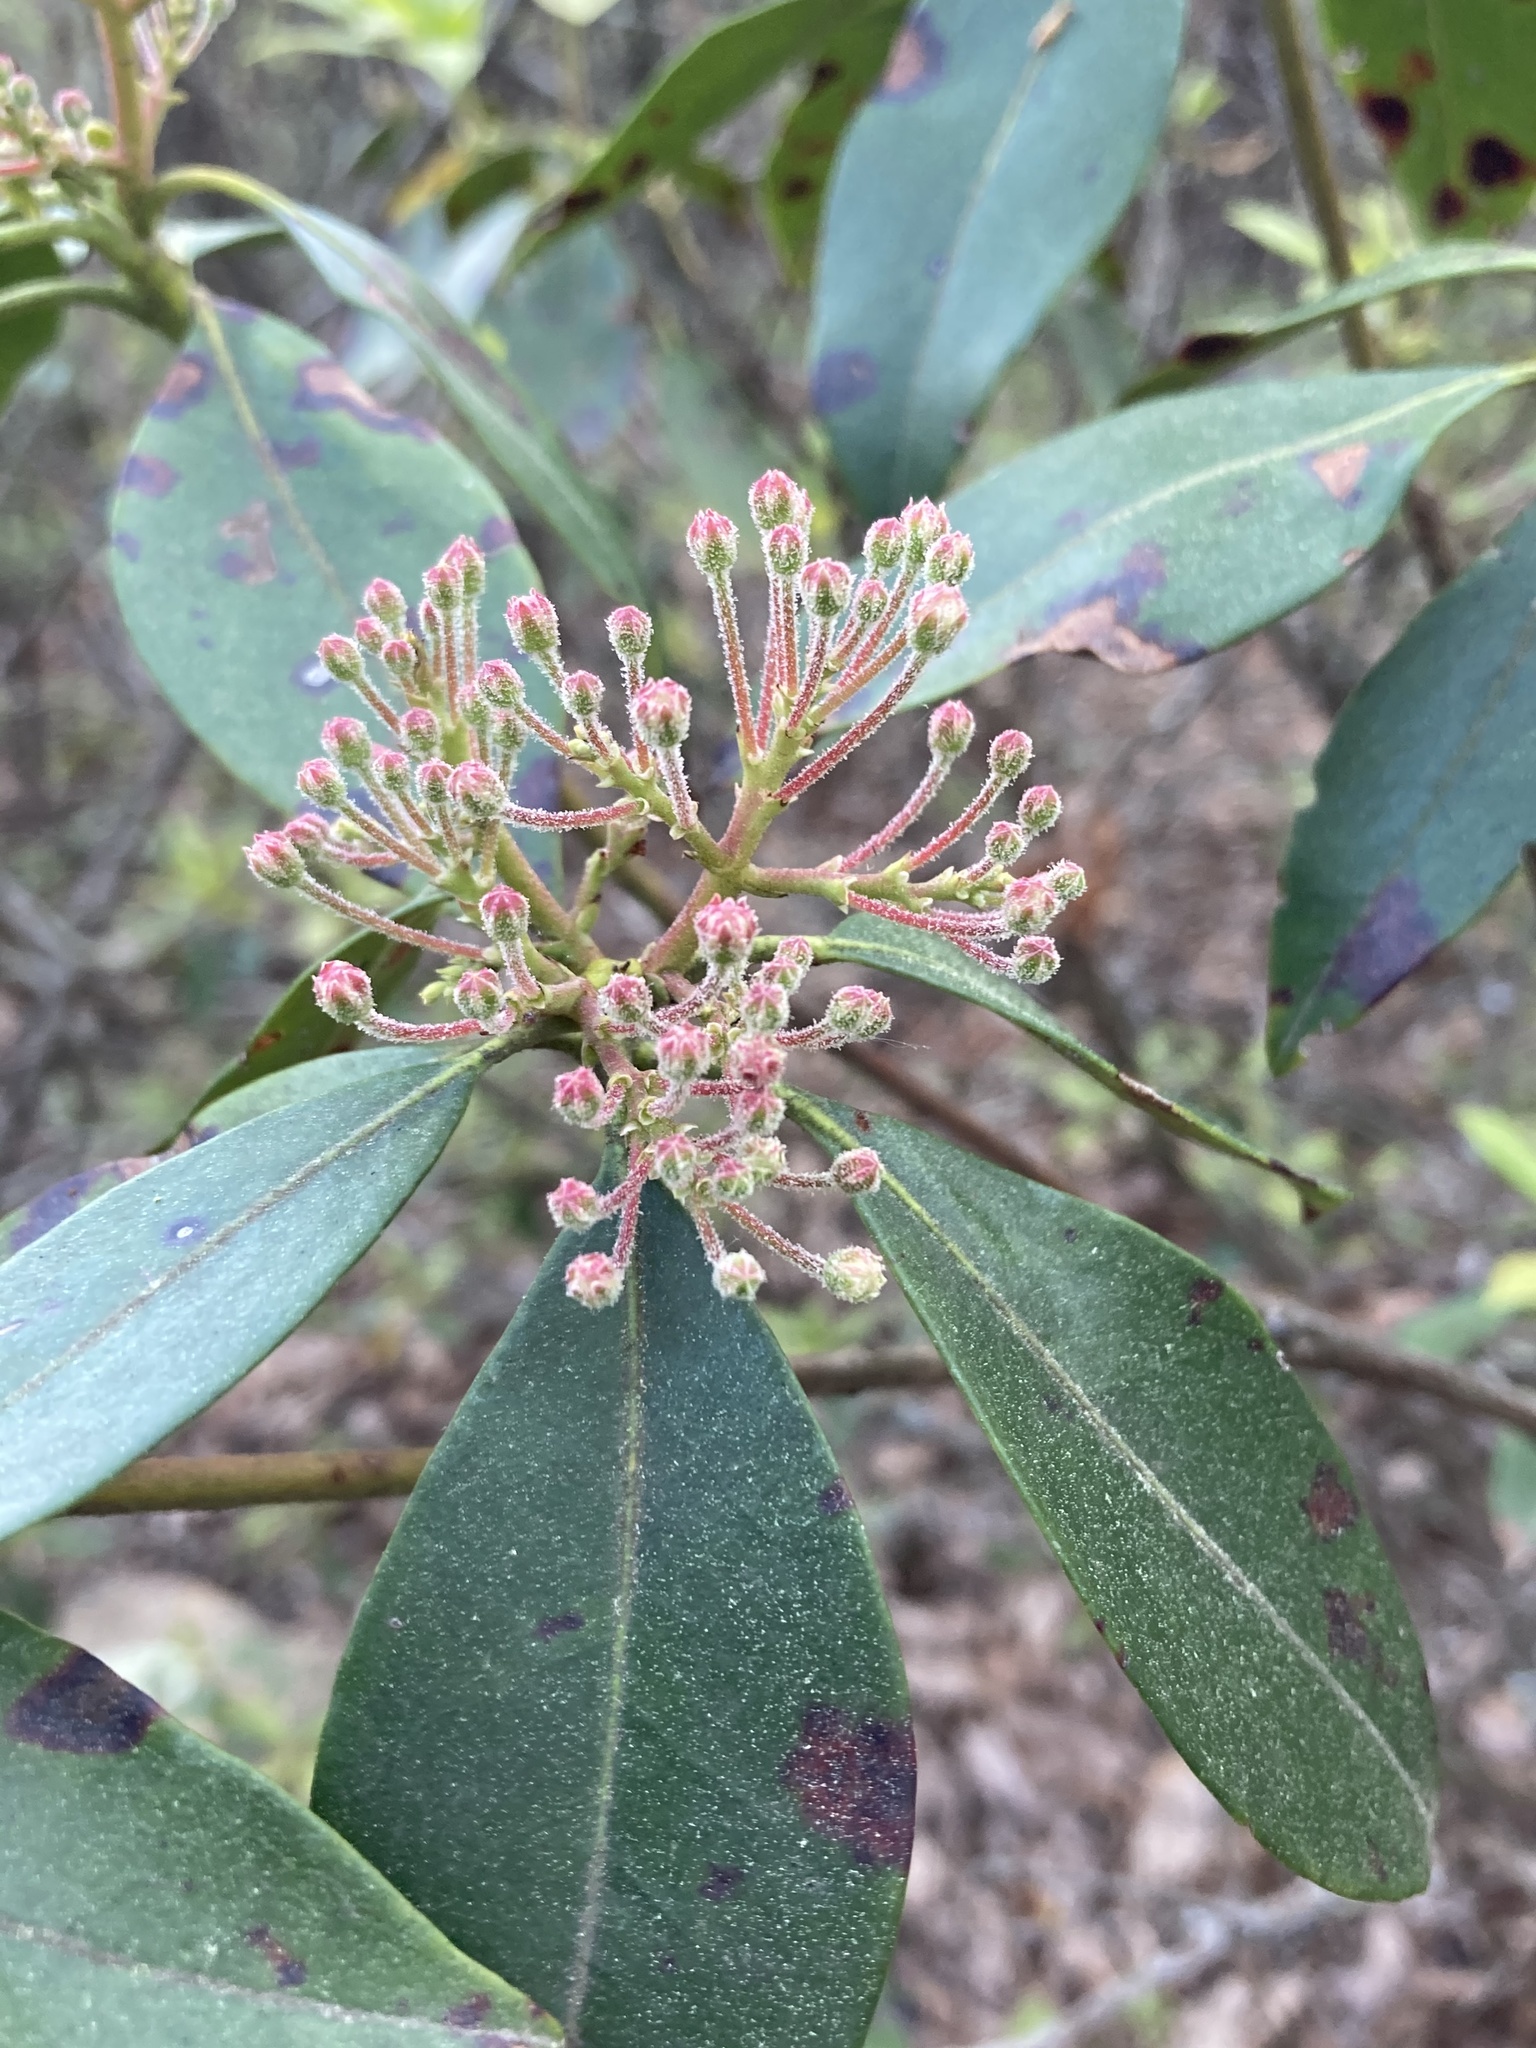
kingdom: Plantae
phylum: Tracheophyta
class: Magnoliopsida
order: Ericales
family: Ericaceae
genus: Kalmia
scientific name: Kalmia latifolia
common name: Mountain-laurel
